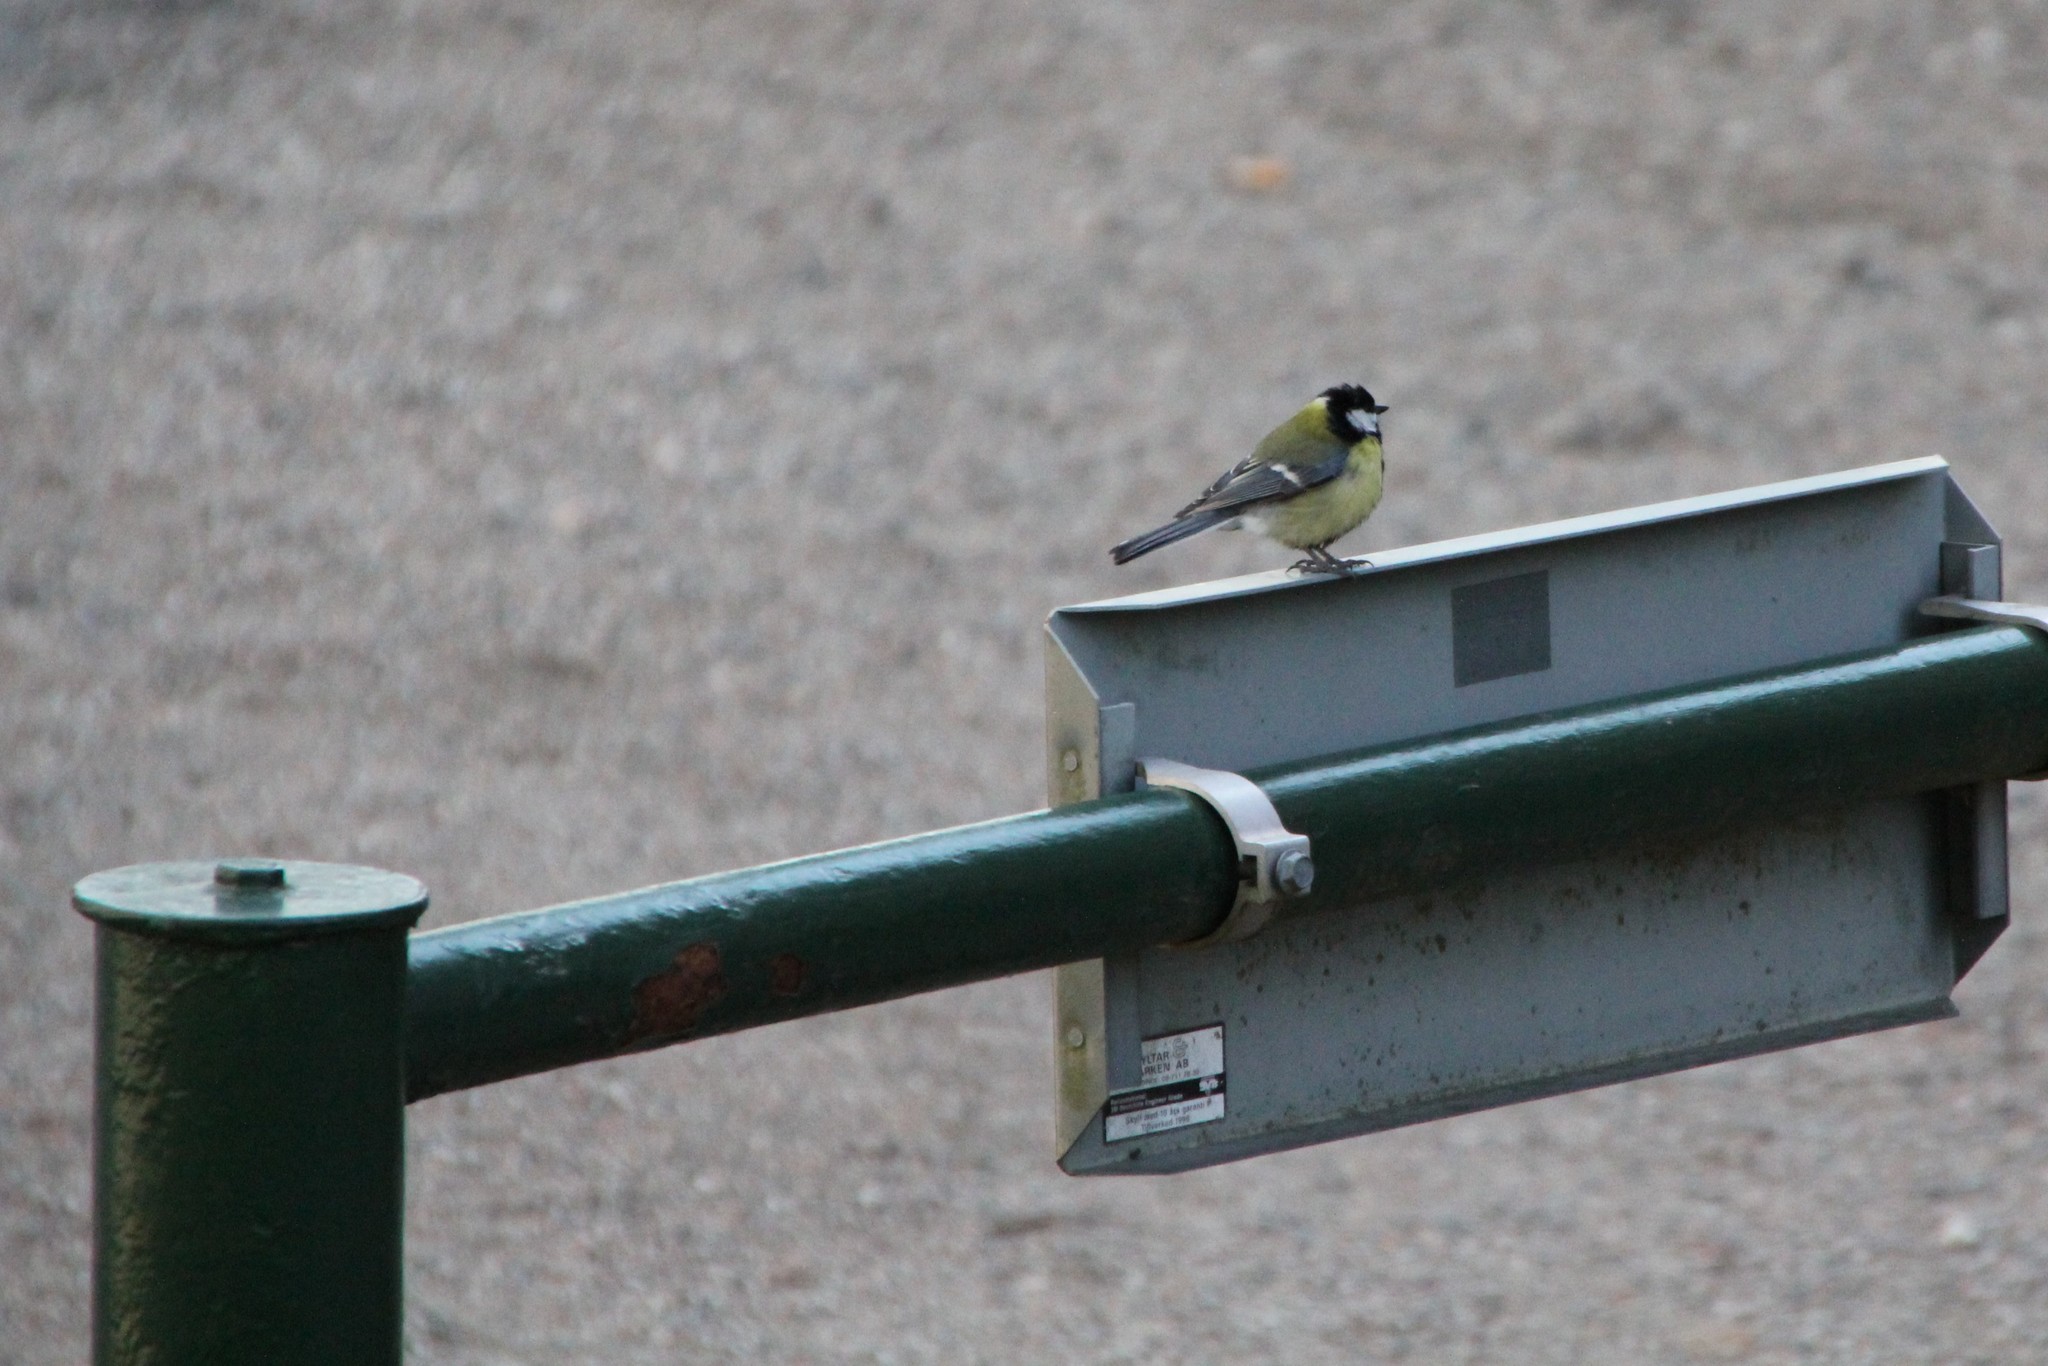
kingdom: Animalia
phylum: Chordata
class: Aves
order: Passeriformes
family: Paridae
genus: Parus
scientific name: Parus major
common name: Great tit
